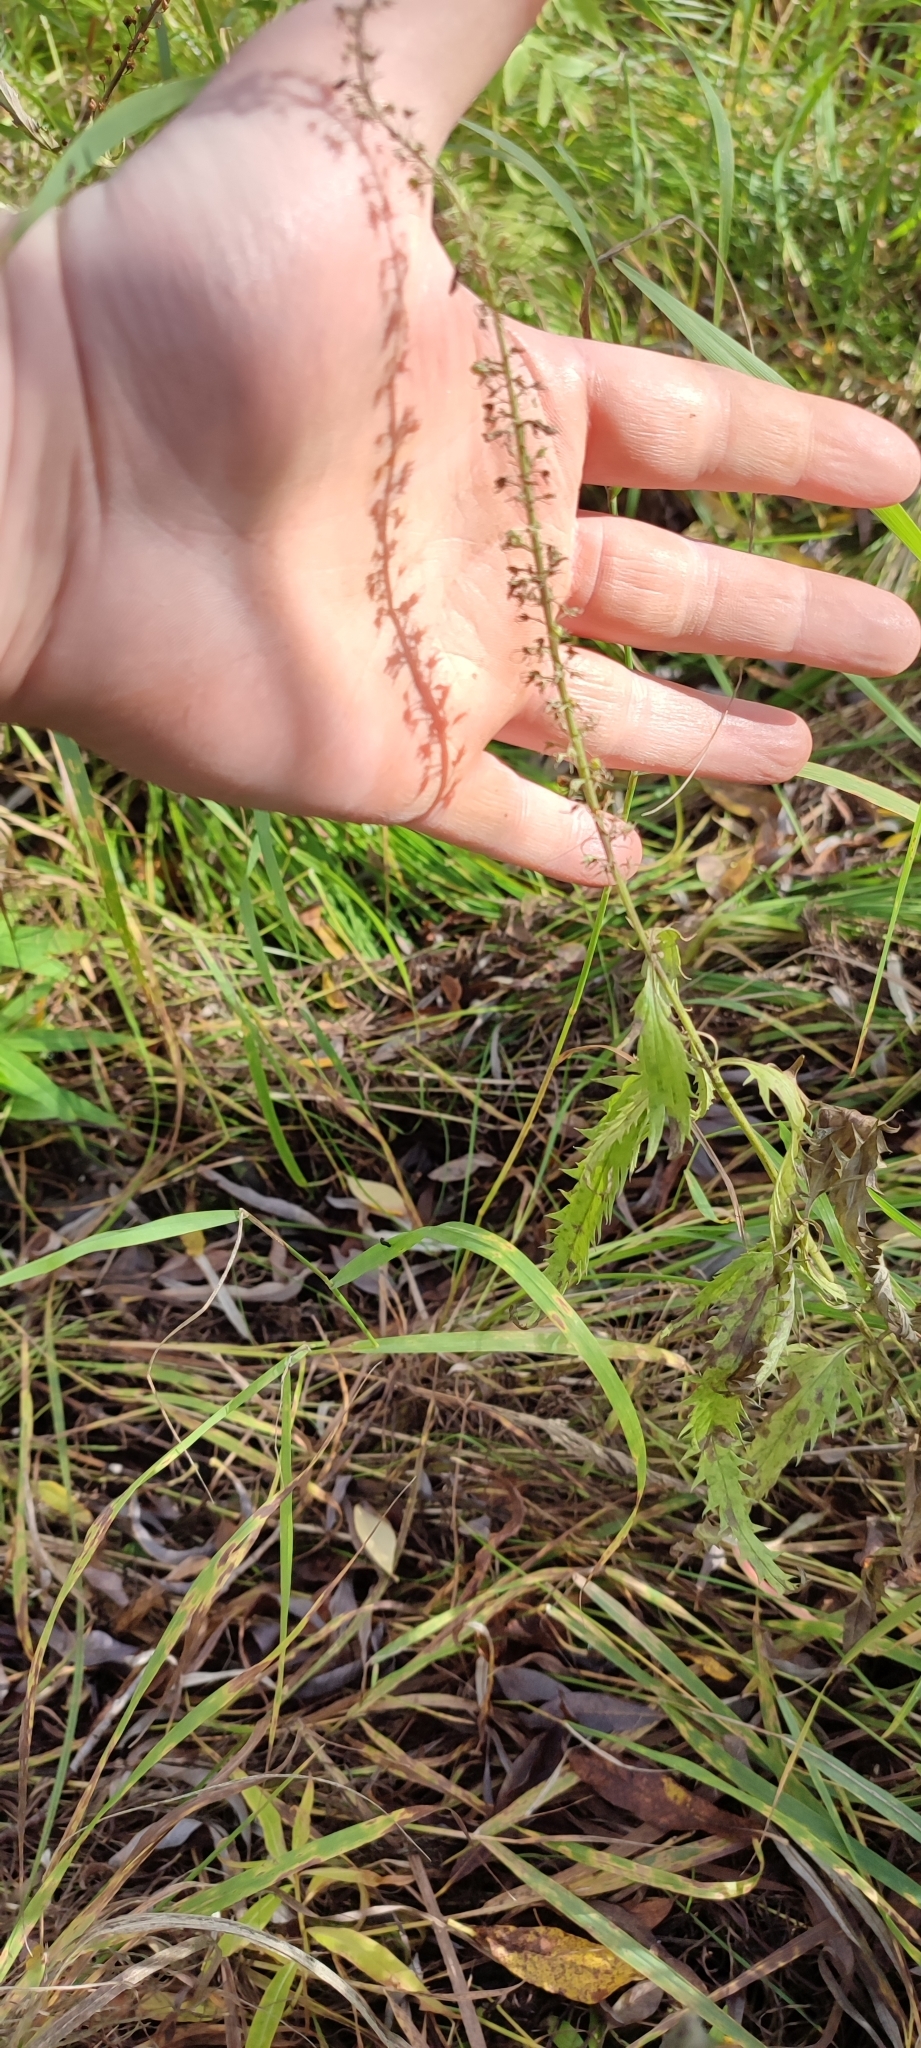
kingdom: Plantae
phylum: Tracheophyta
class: Magnoliopsida
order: Lamiales
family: Plantaginaceae
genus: Veronica
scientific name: Veronica longifolia
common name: Garden speedwell
